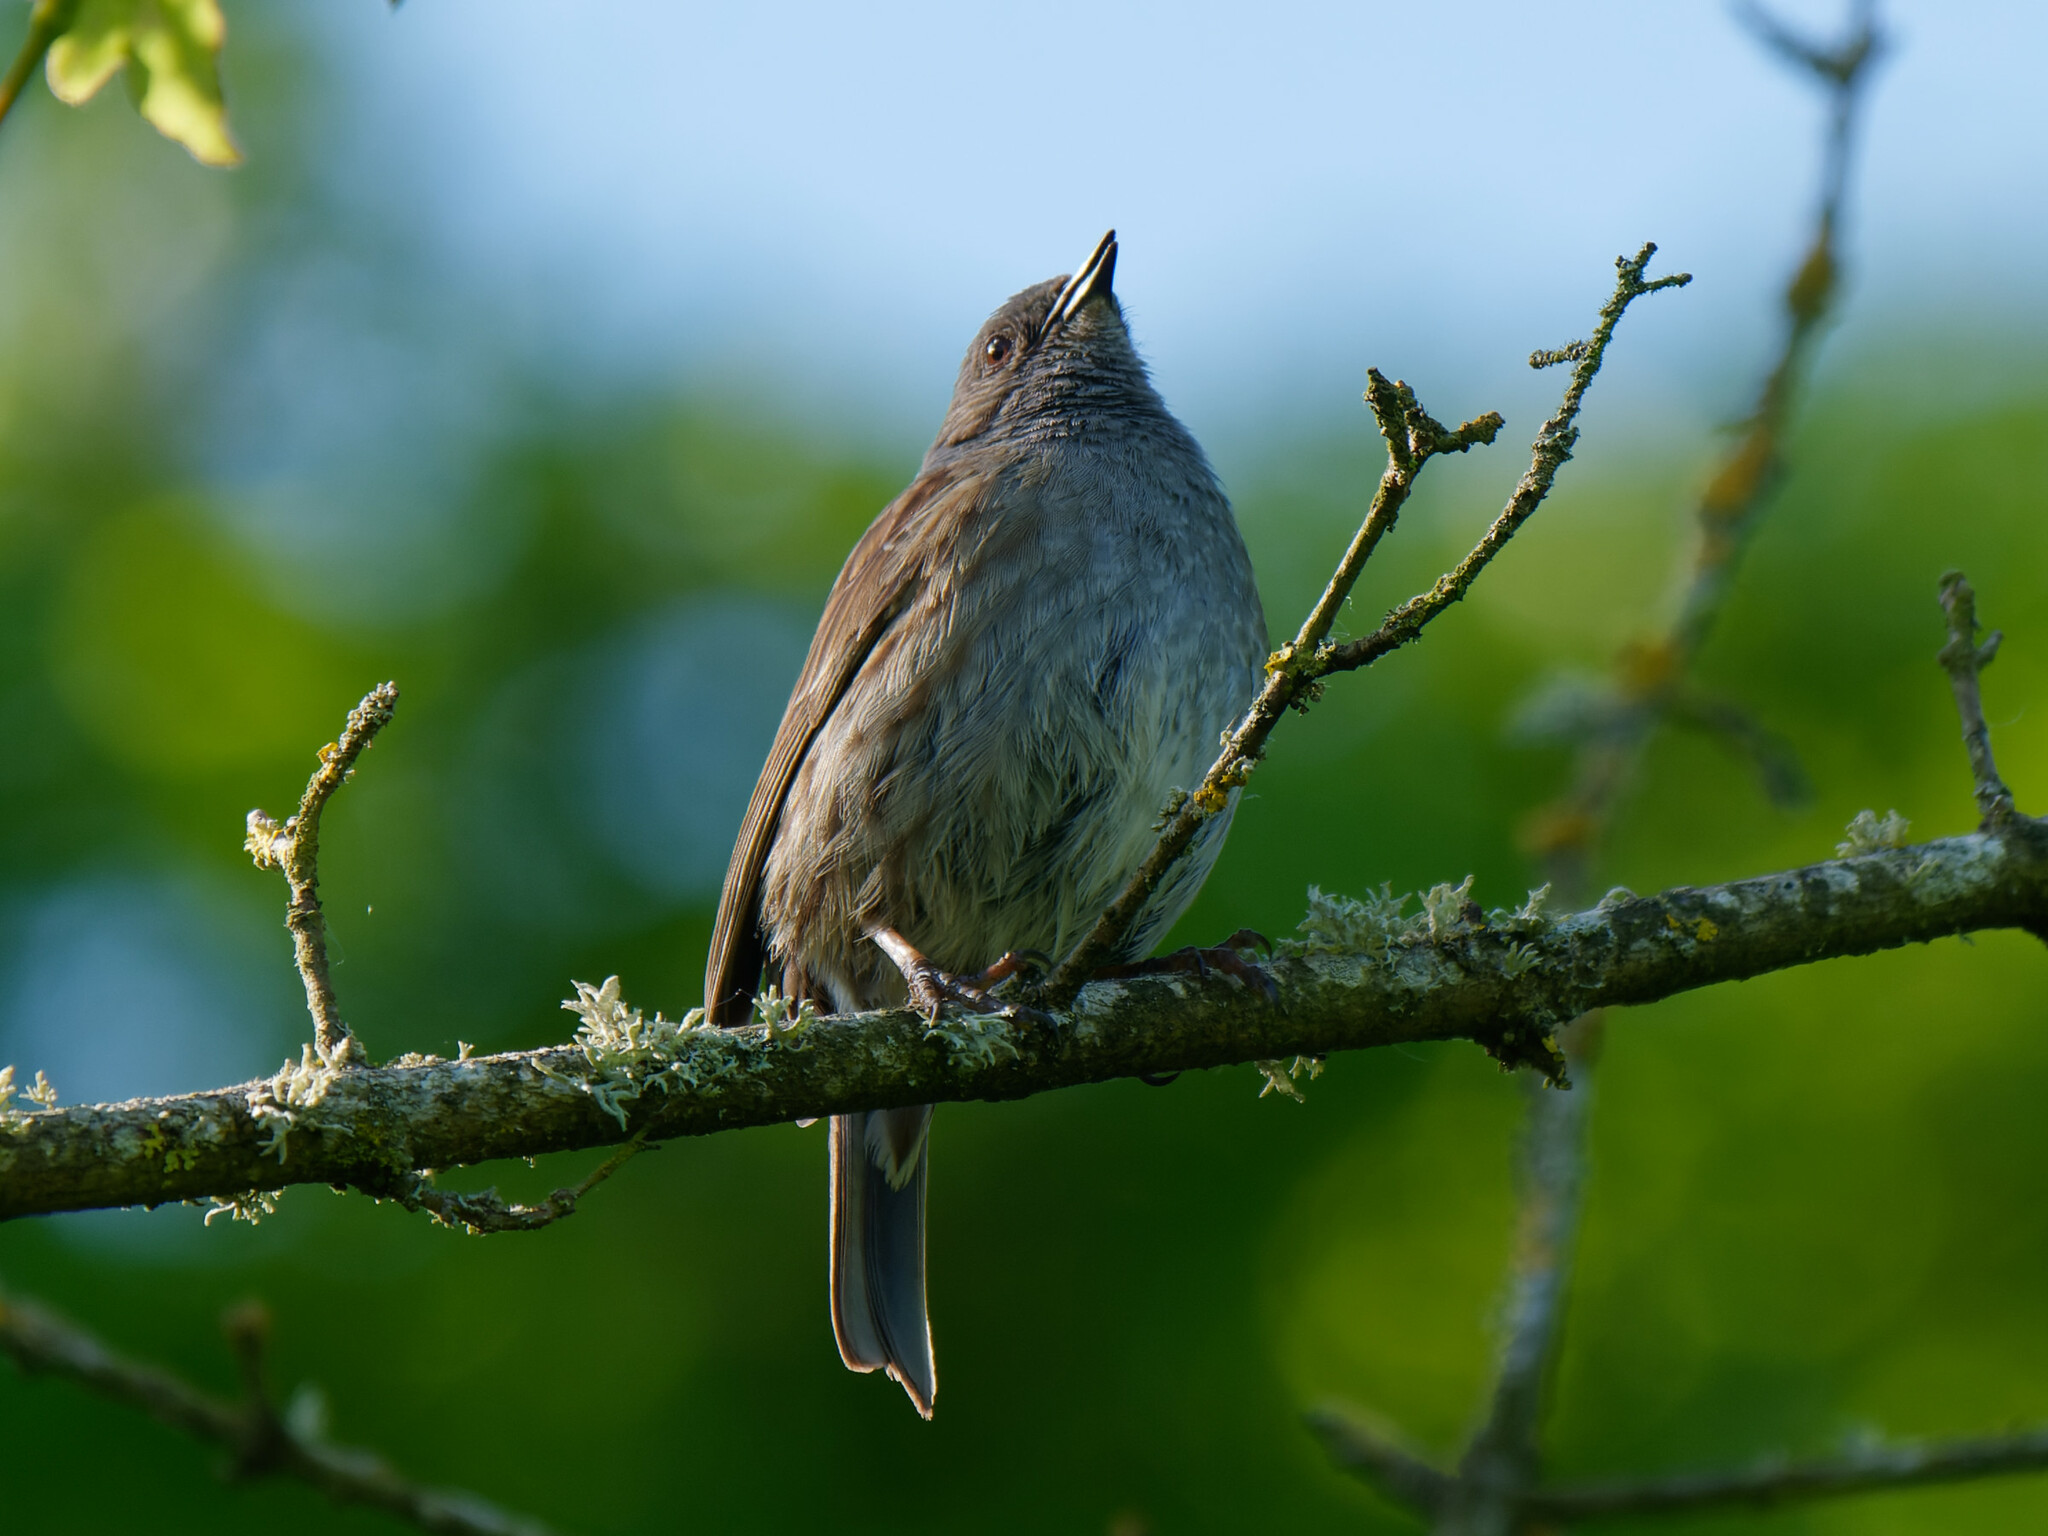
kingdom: Animalia
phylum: Chordata
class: Aves
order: Passeriformes
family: Prunellidae
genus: Prunella
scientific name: Prunella modularis
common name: Dunnock
